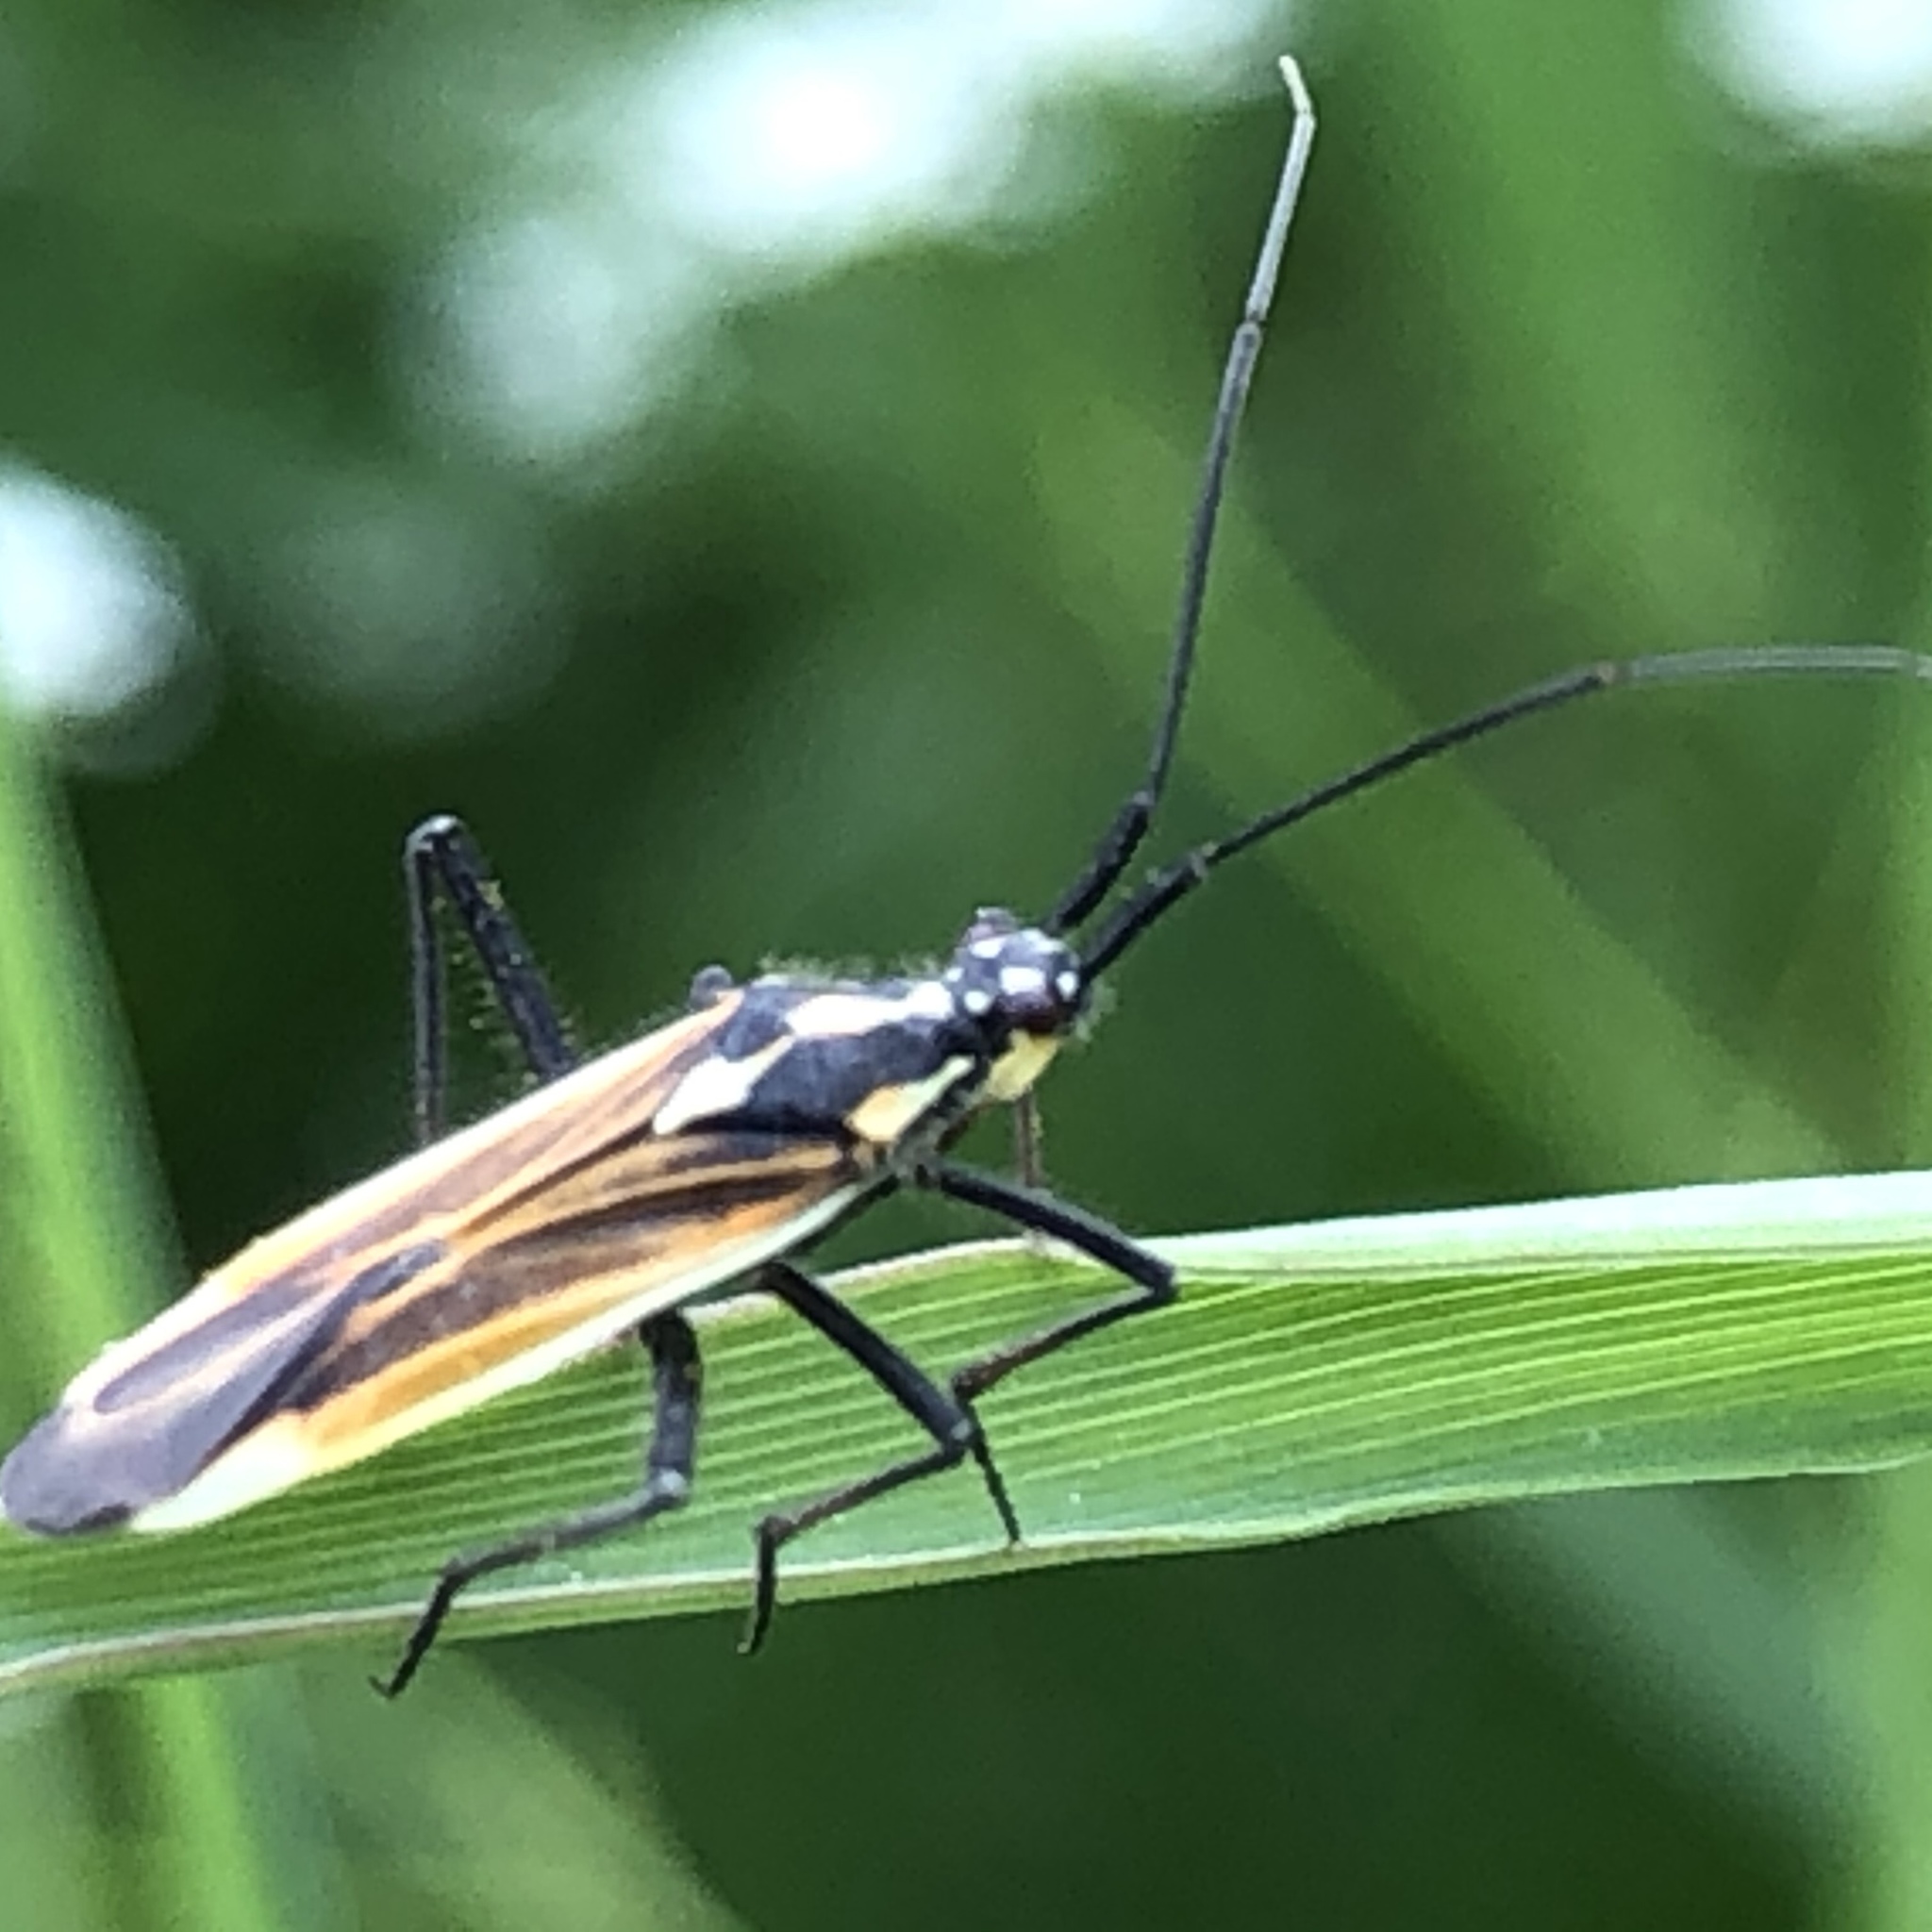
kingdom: Animalia
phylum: Arthropoda
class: Insecta
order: Hemiptera
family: Miridae
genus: Leptopterna
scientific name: Leptopterna dolabrata
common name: Meadow plant bug
